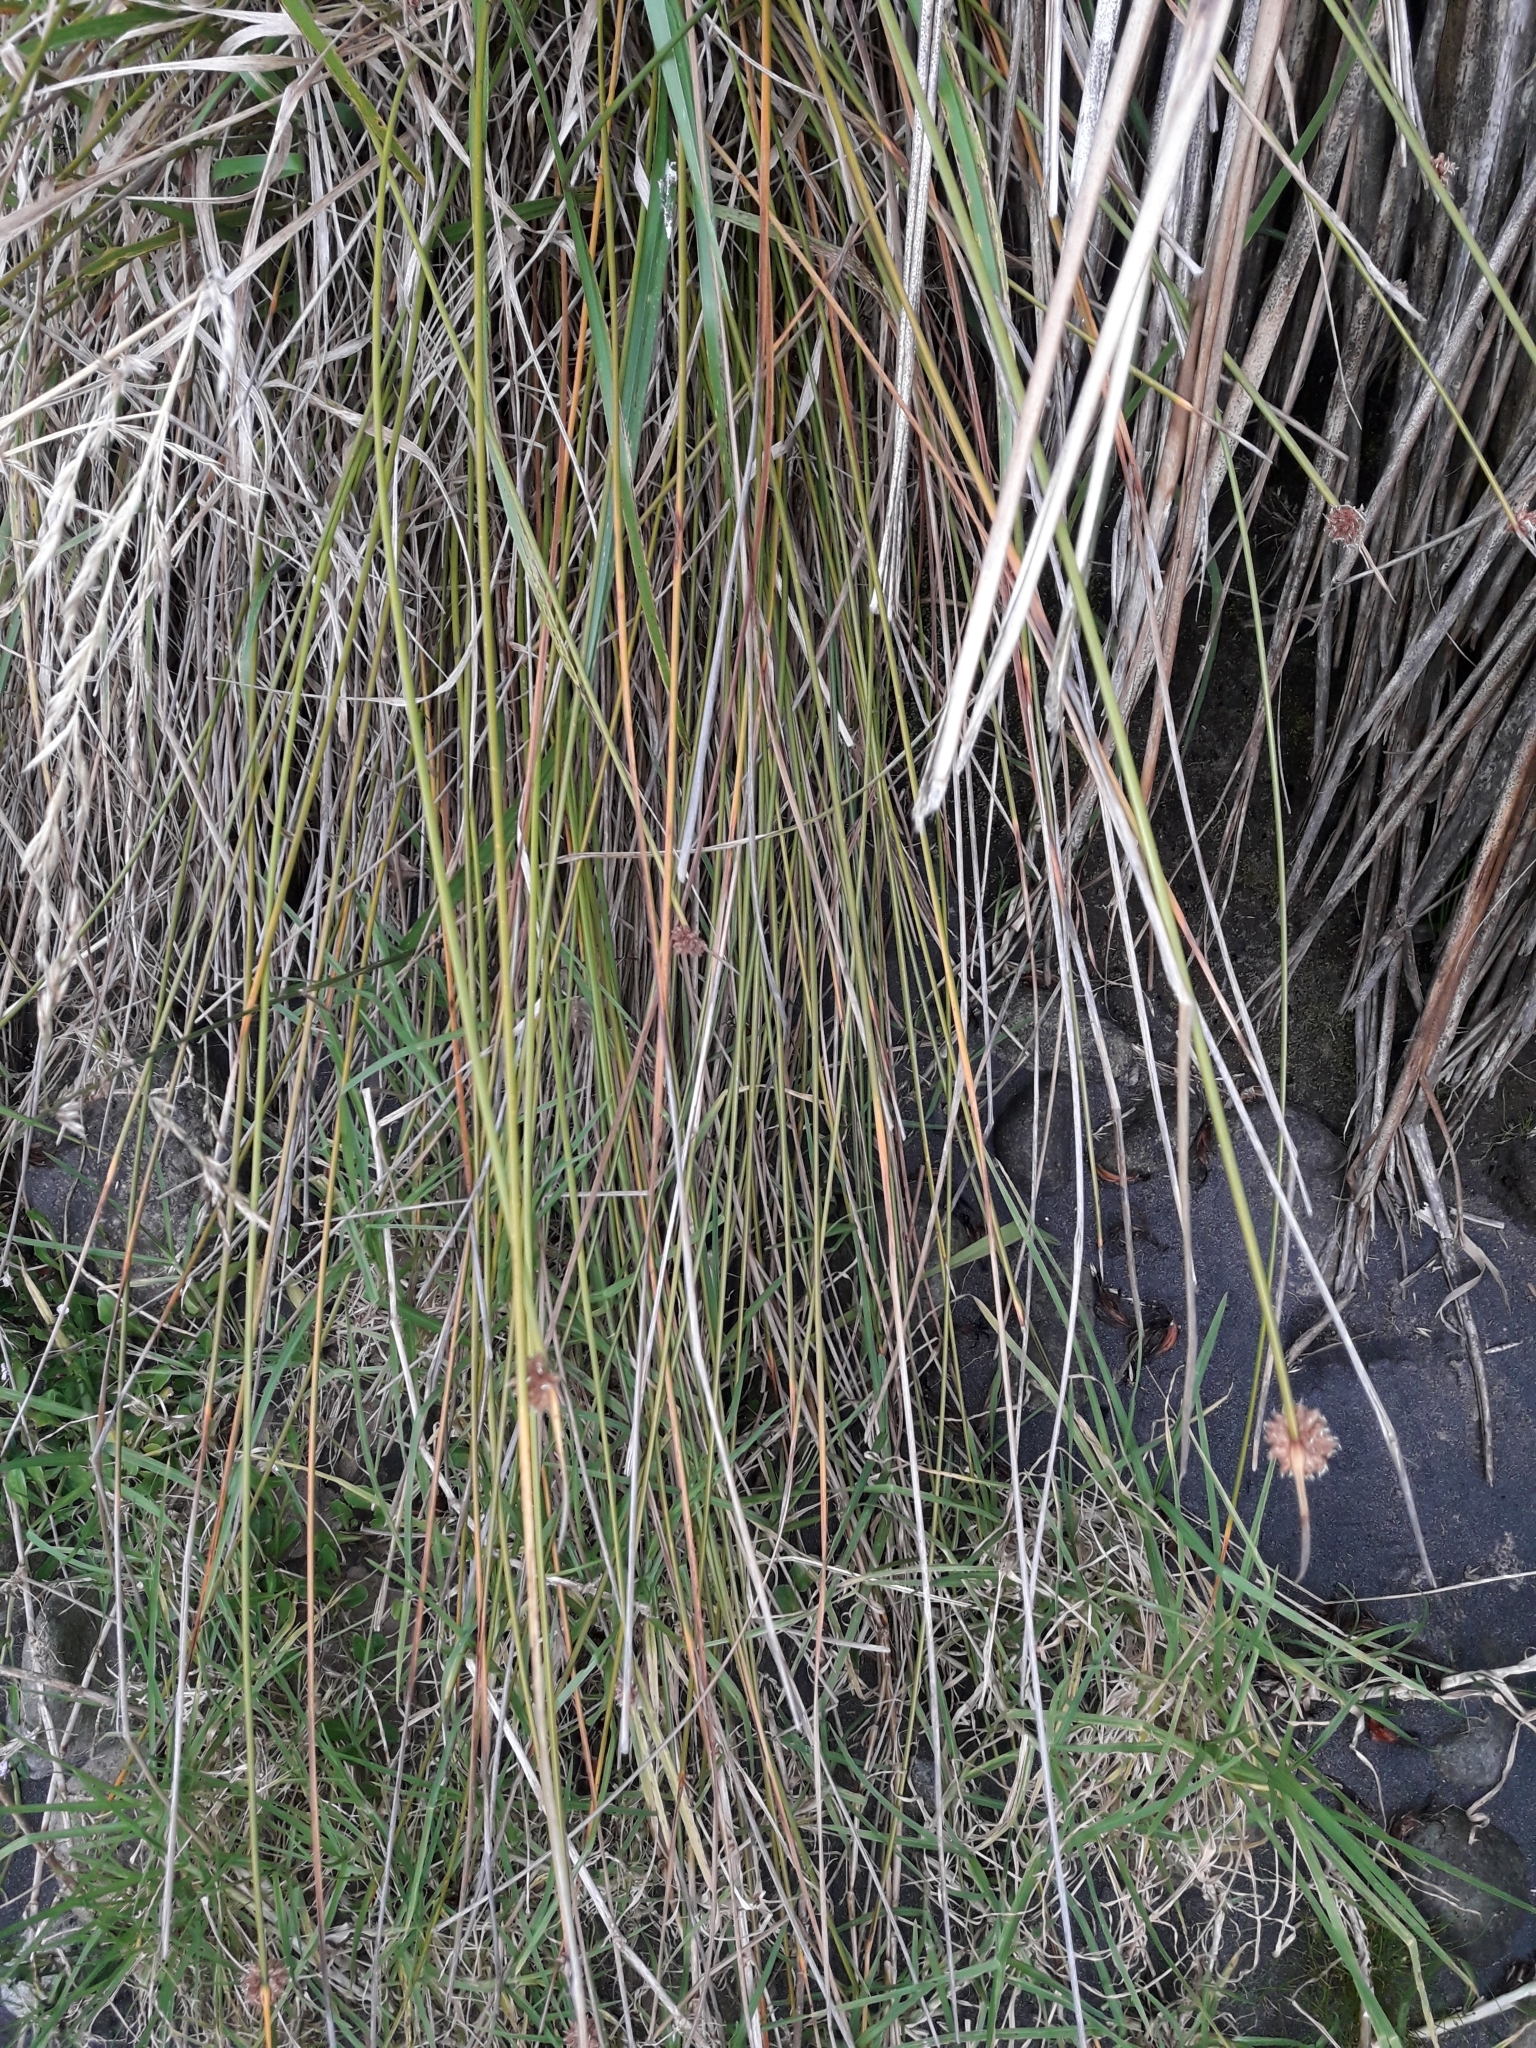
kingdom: Plantae
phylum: Tracheophyta
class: Liliopsida
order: Poales
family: Cyperaceae
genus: Ficinia
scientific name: Ficinia nodosa
